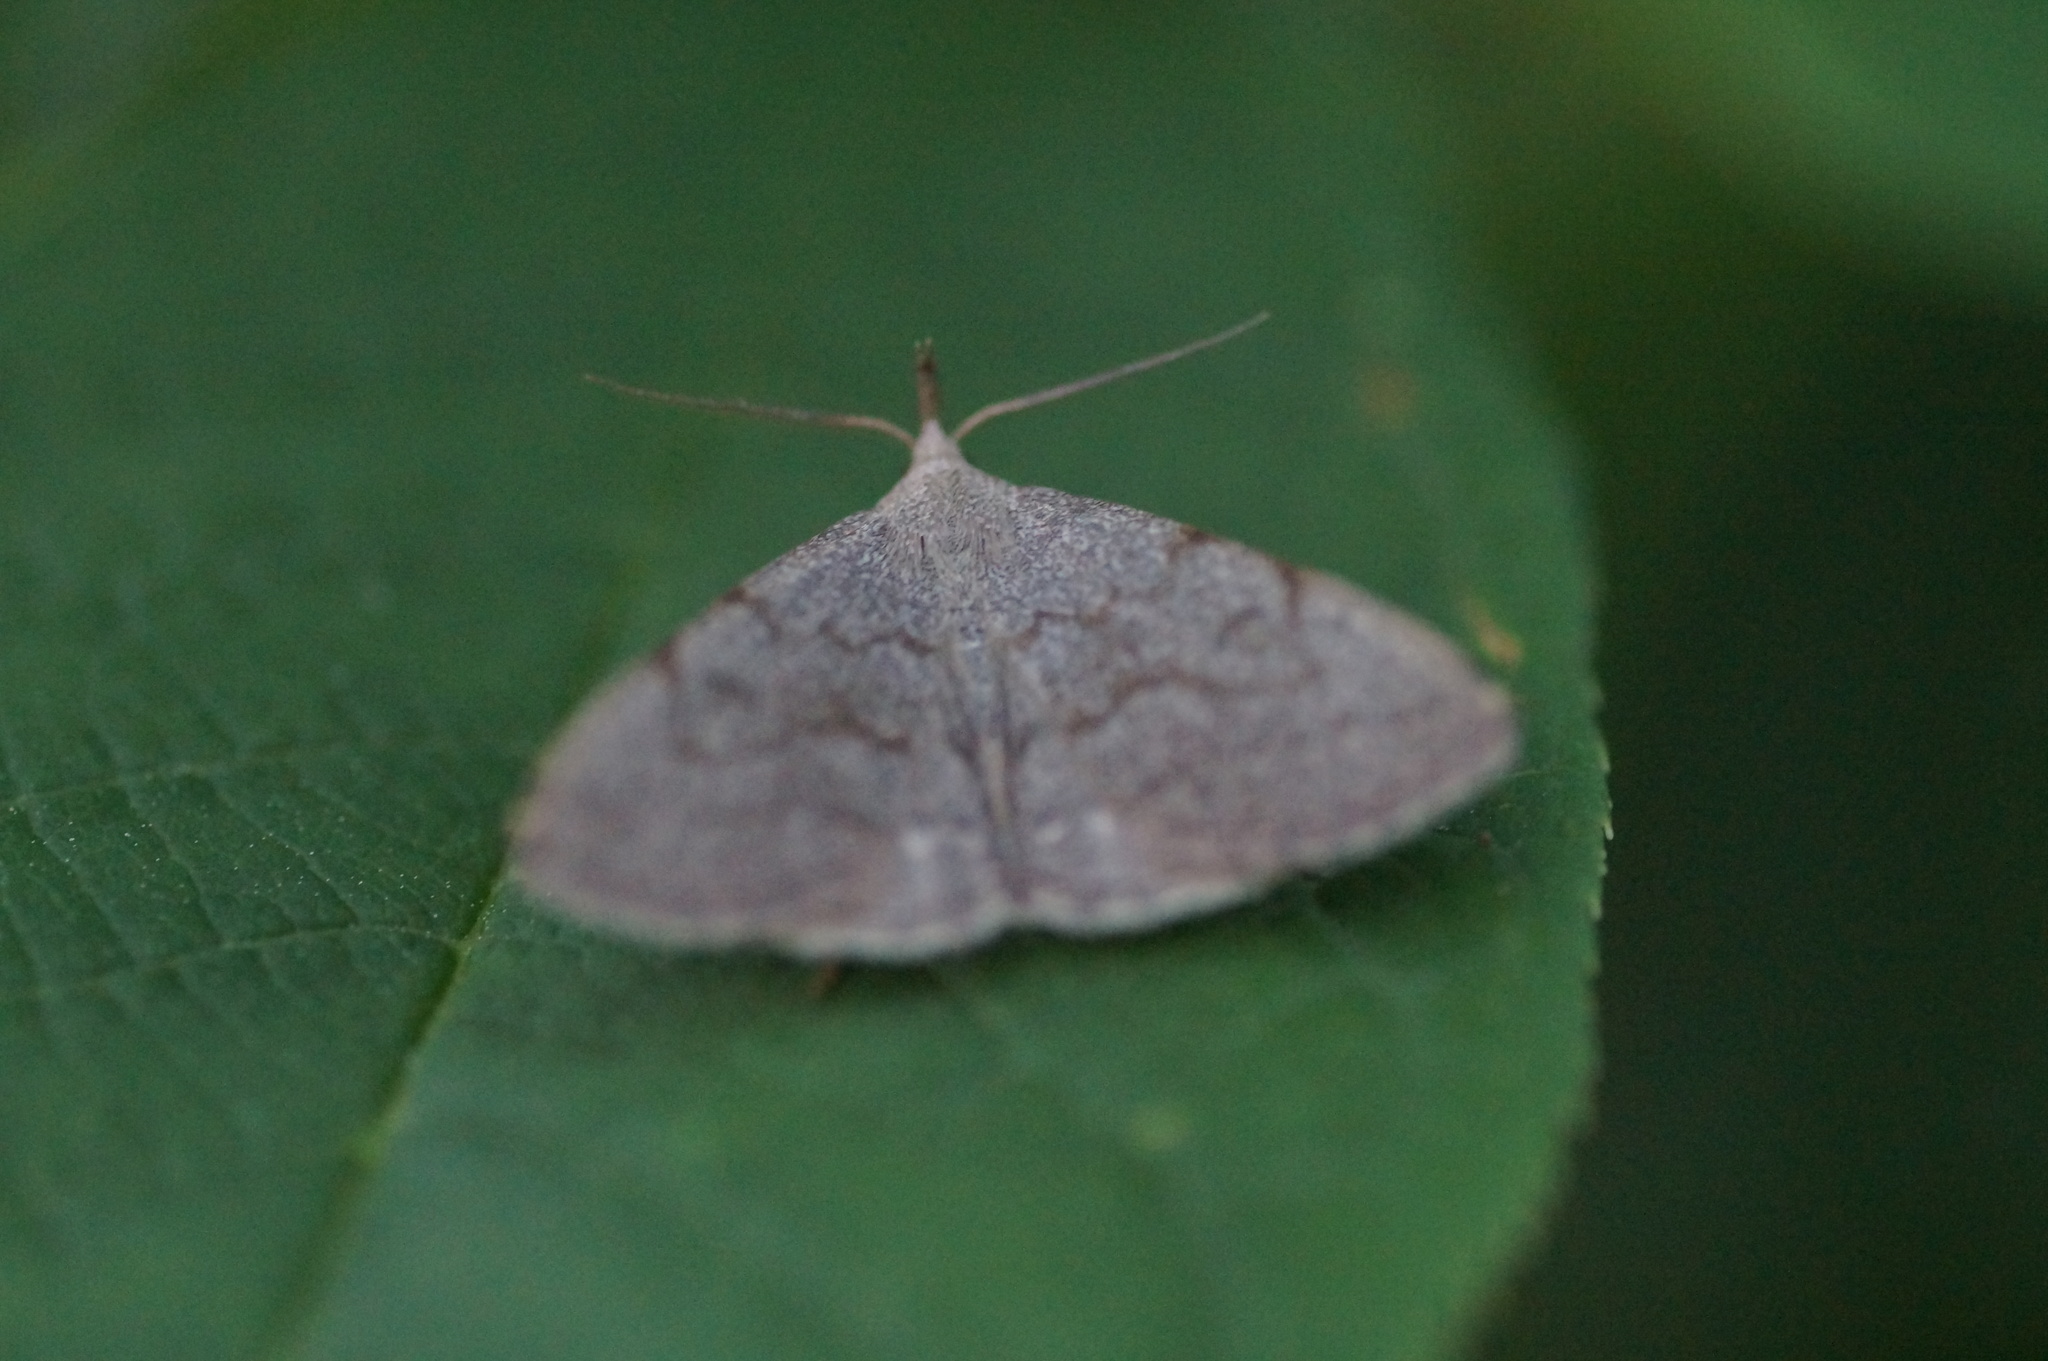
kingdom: Animalia
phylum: Arthropoda
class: Insecta
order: Lepidoptera
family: Erebidae
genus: Pechipogo
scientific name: Pechipogo strigilata
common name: Common fan-foot
